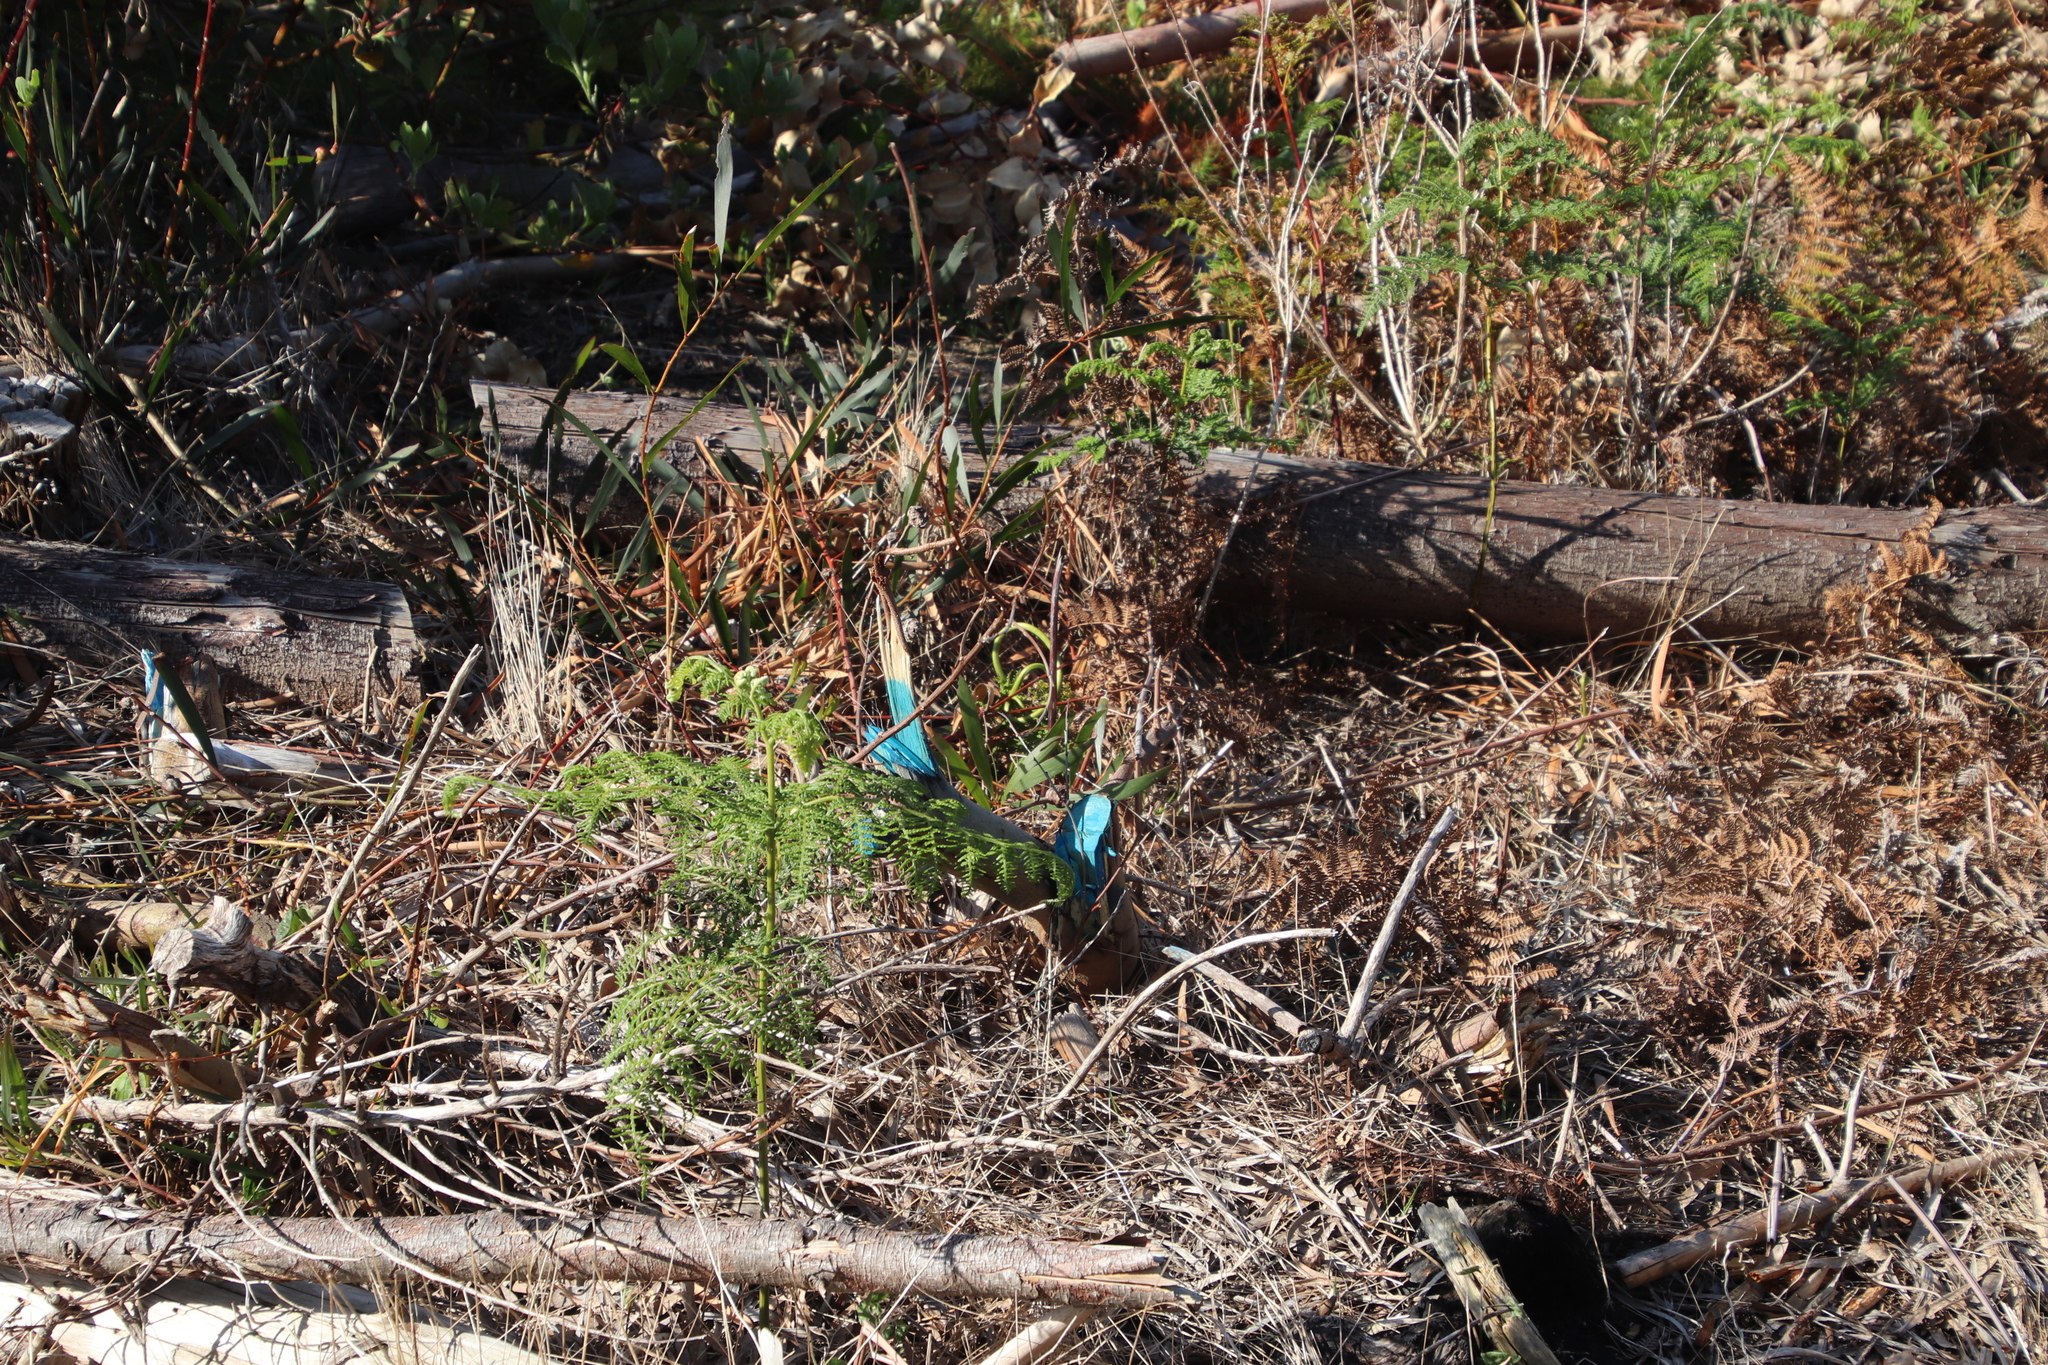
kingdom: Plantae
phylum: Tracheophyta
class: Magnoliopsida
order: Fabales
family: Fabaceae
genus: Acacia
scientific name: Acacia longifolia
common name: Sydney golden wattle
